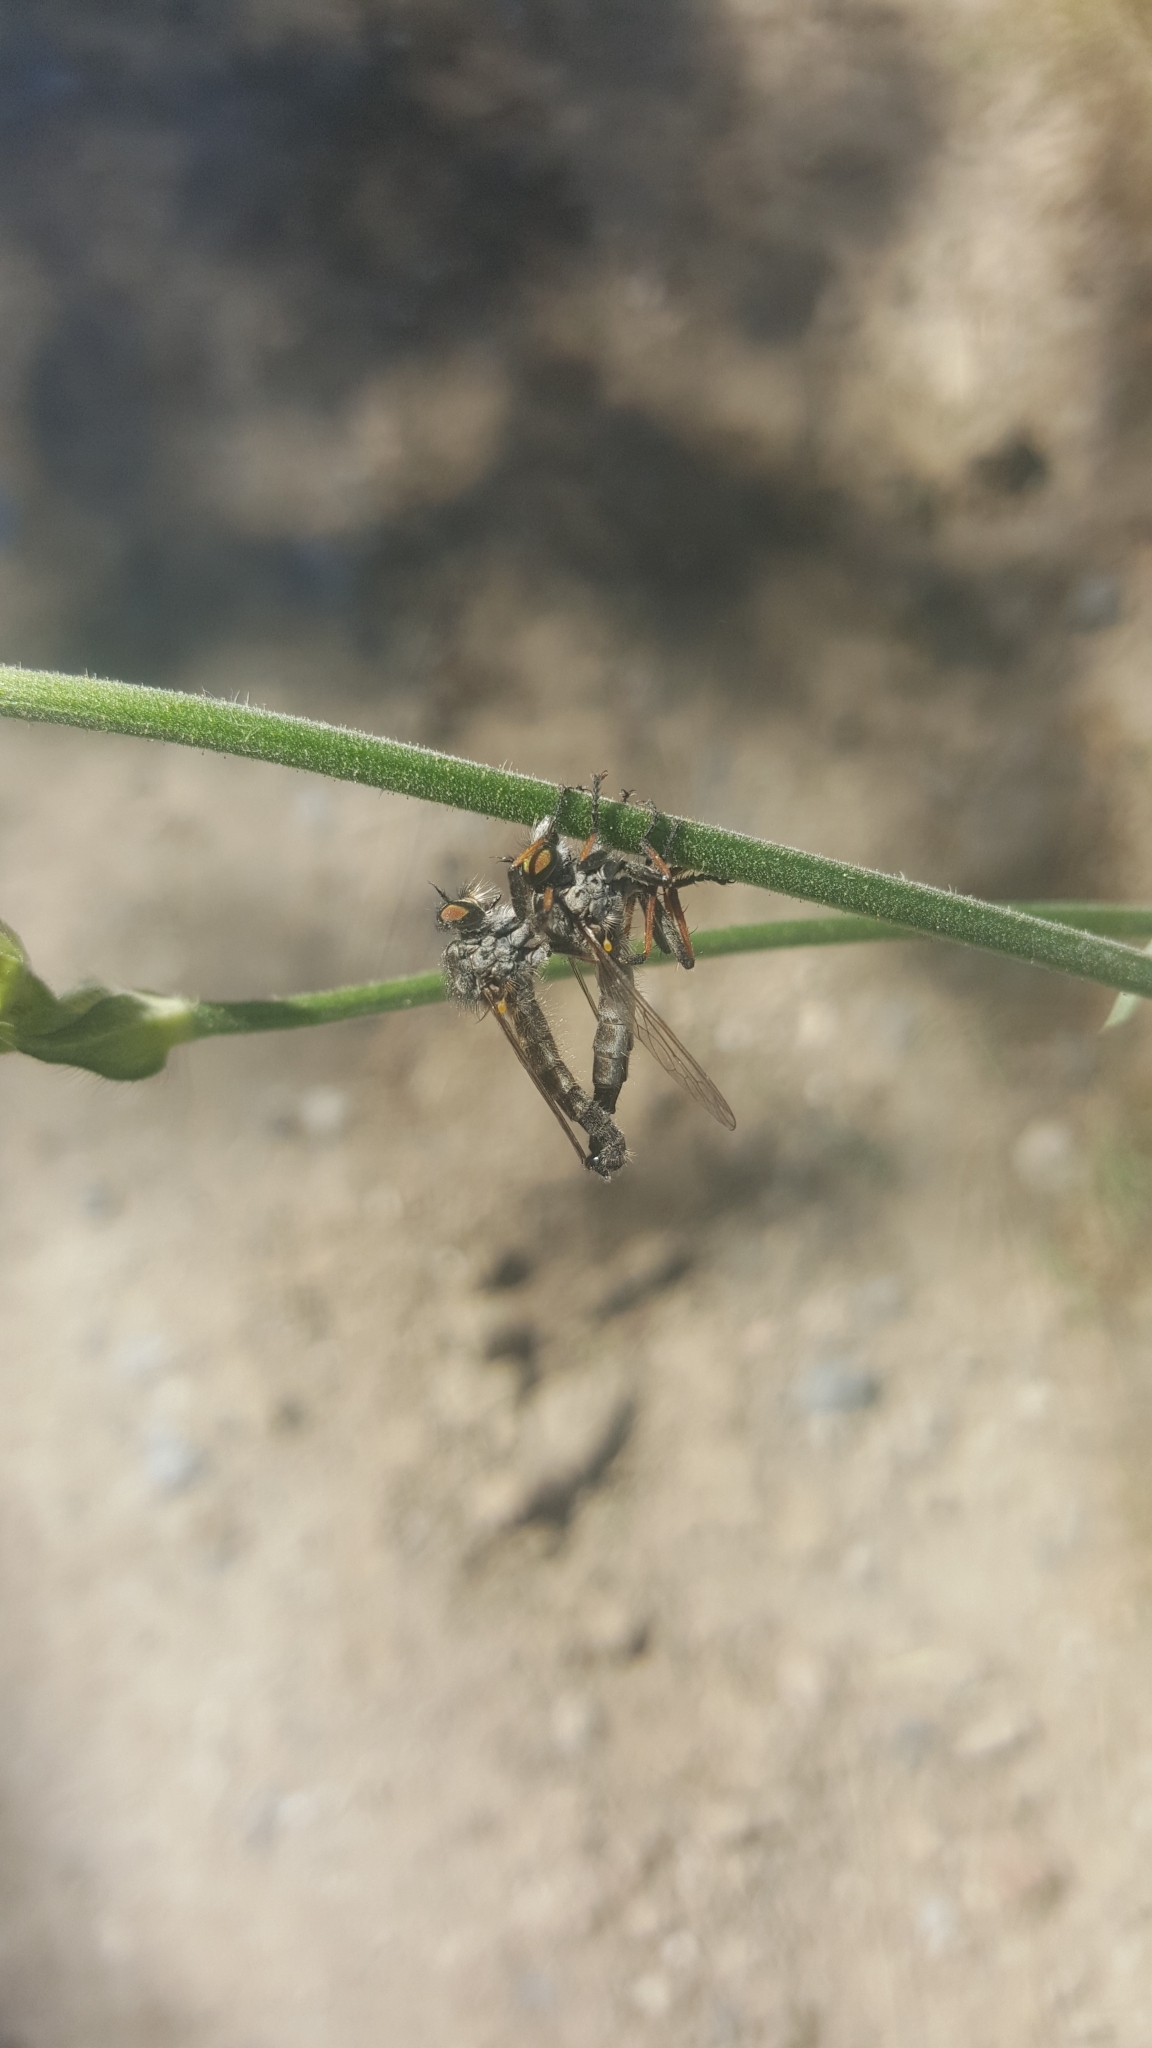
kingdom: Animalia
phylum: Arthropoda
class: Insecta
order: Diptera
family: Asilidae
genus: Neoitamus
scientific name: Neoitamus cyanurus
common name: Common awl robberfly
